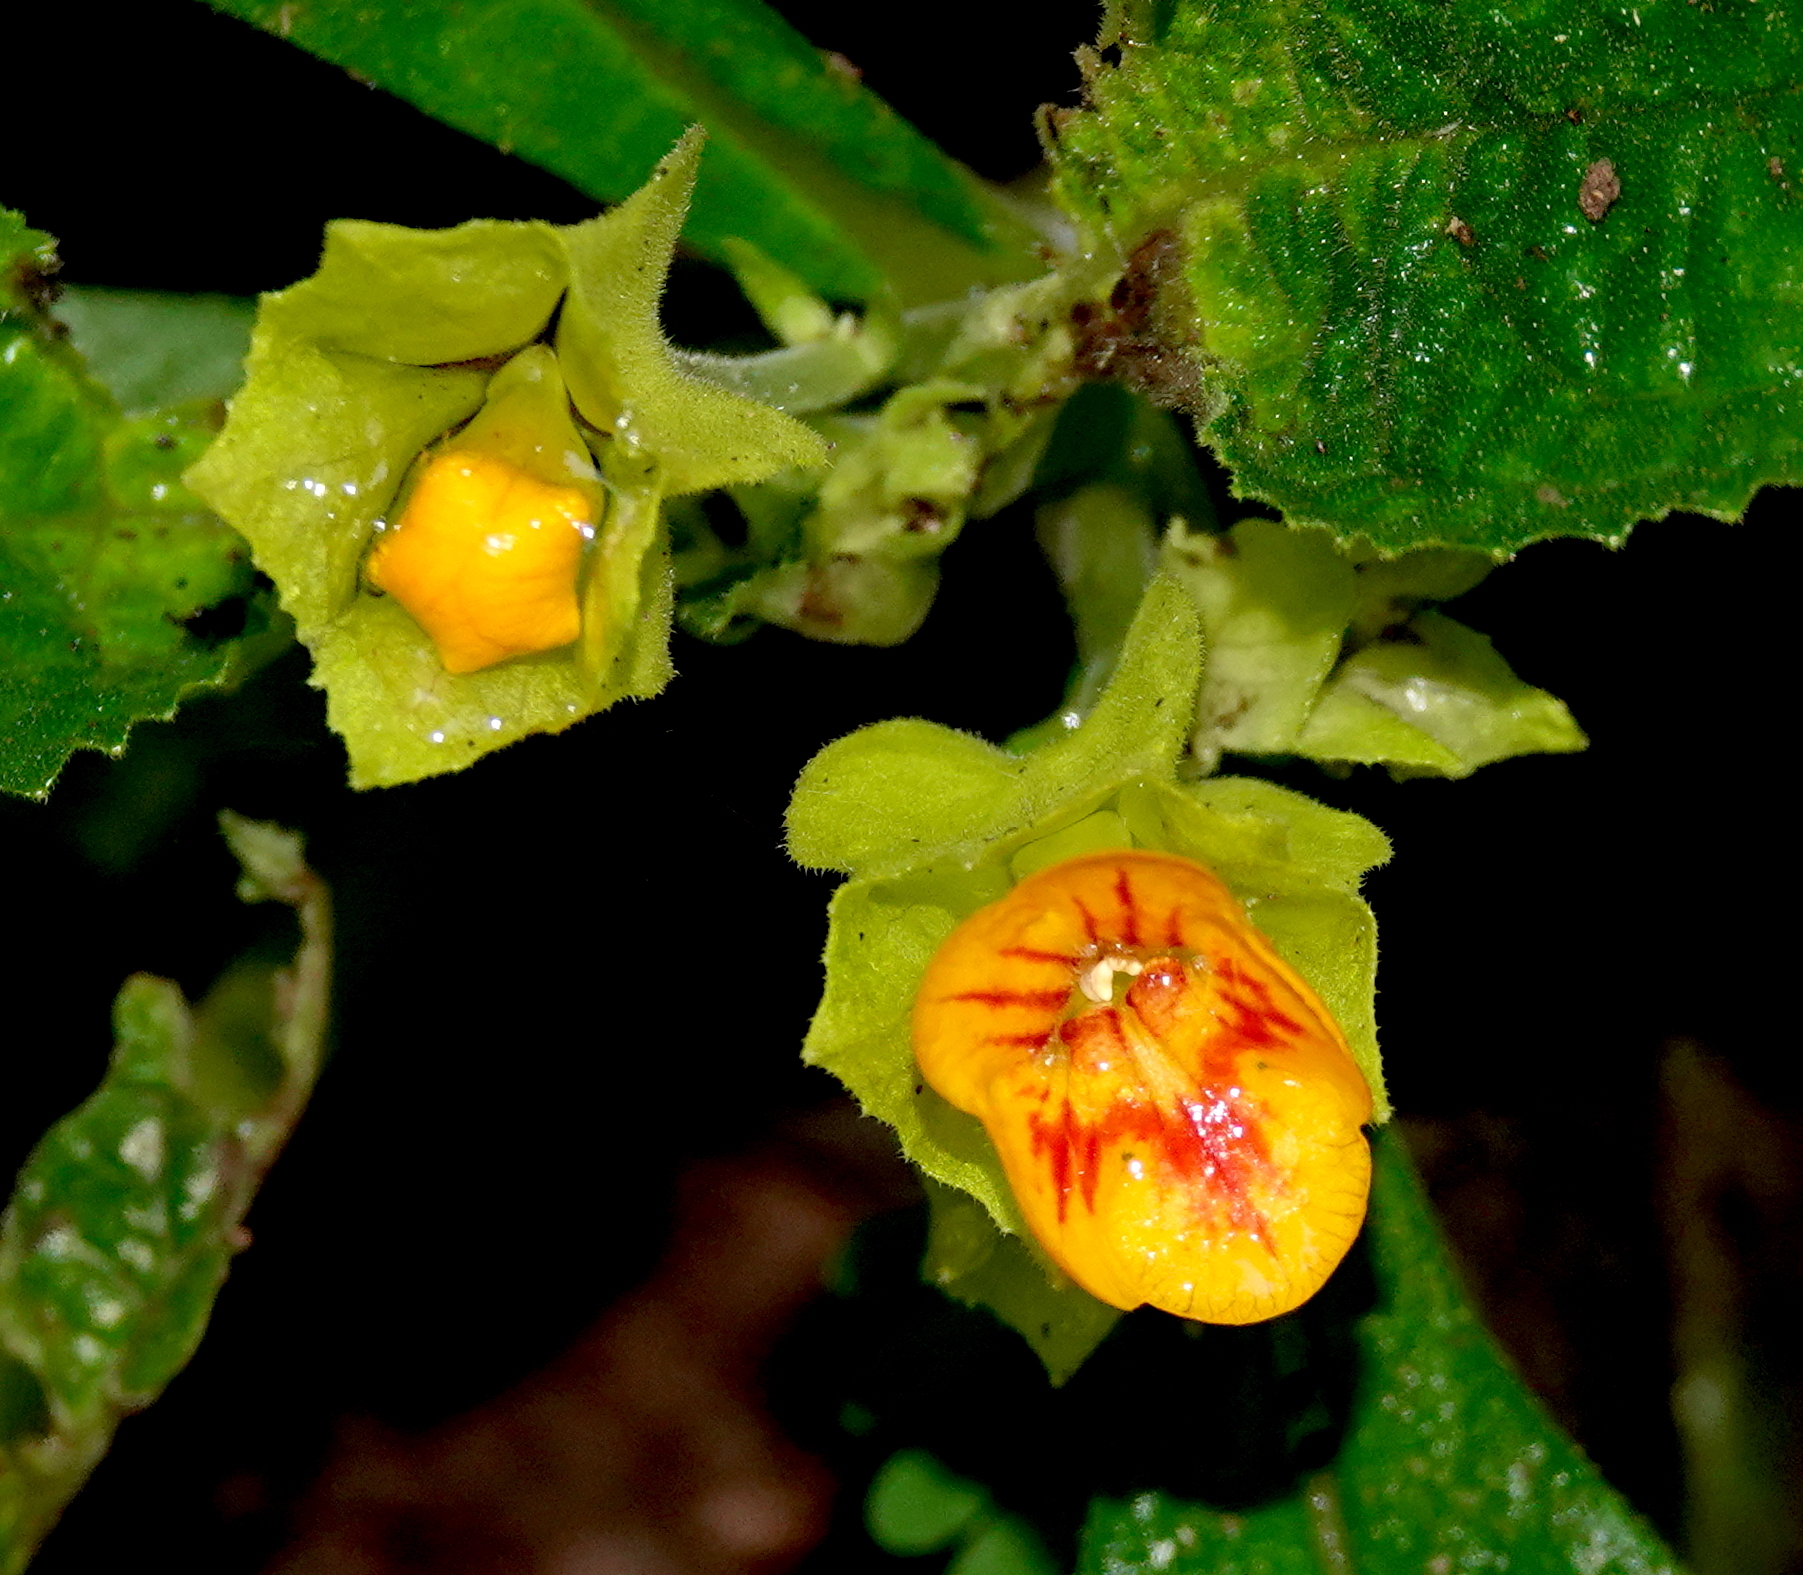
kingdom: Plantae
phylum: Tracheophyta
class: Magnoliopsida
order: Lamiales
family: Gesneriaceae
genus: Chrysothemis
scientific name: Chrysothemis friedrichsthaliana
